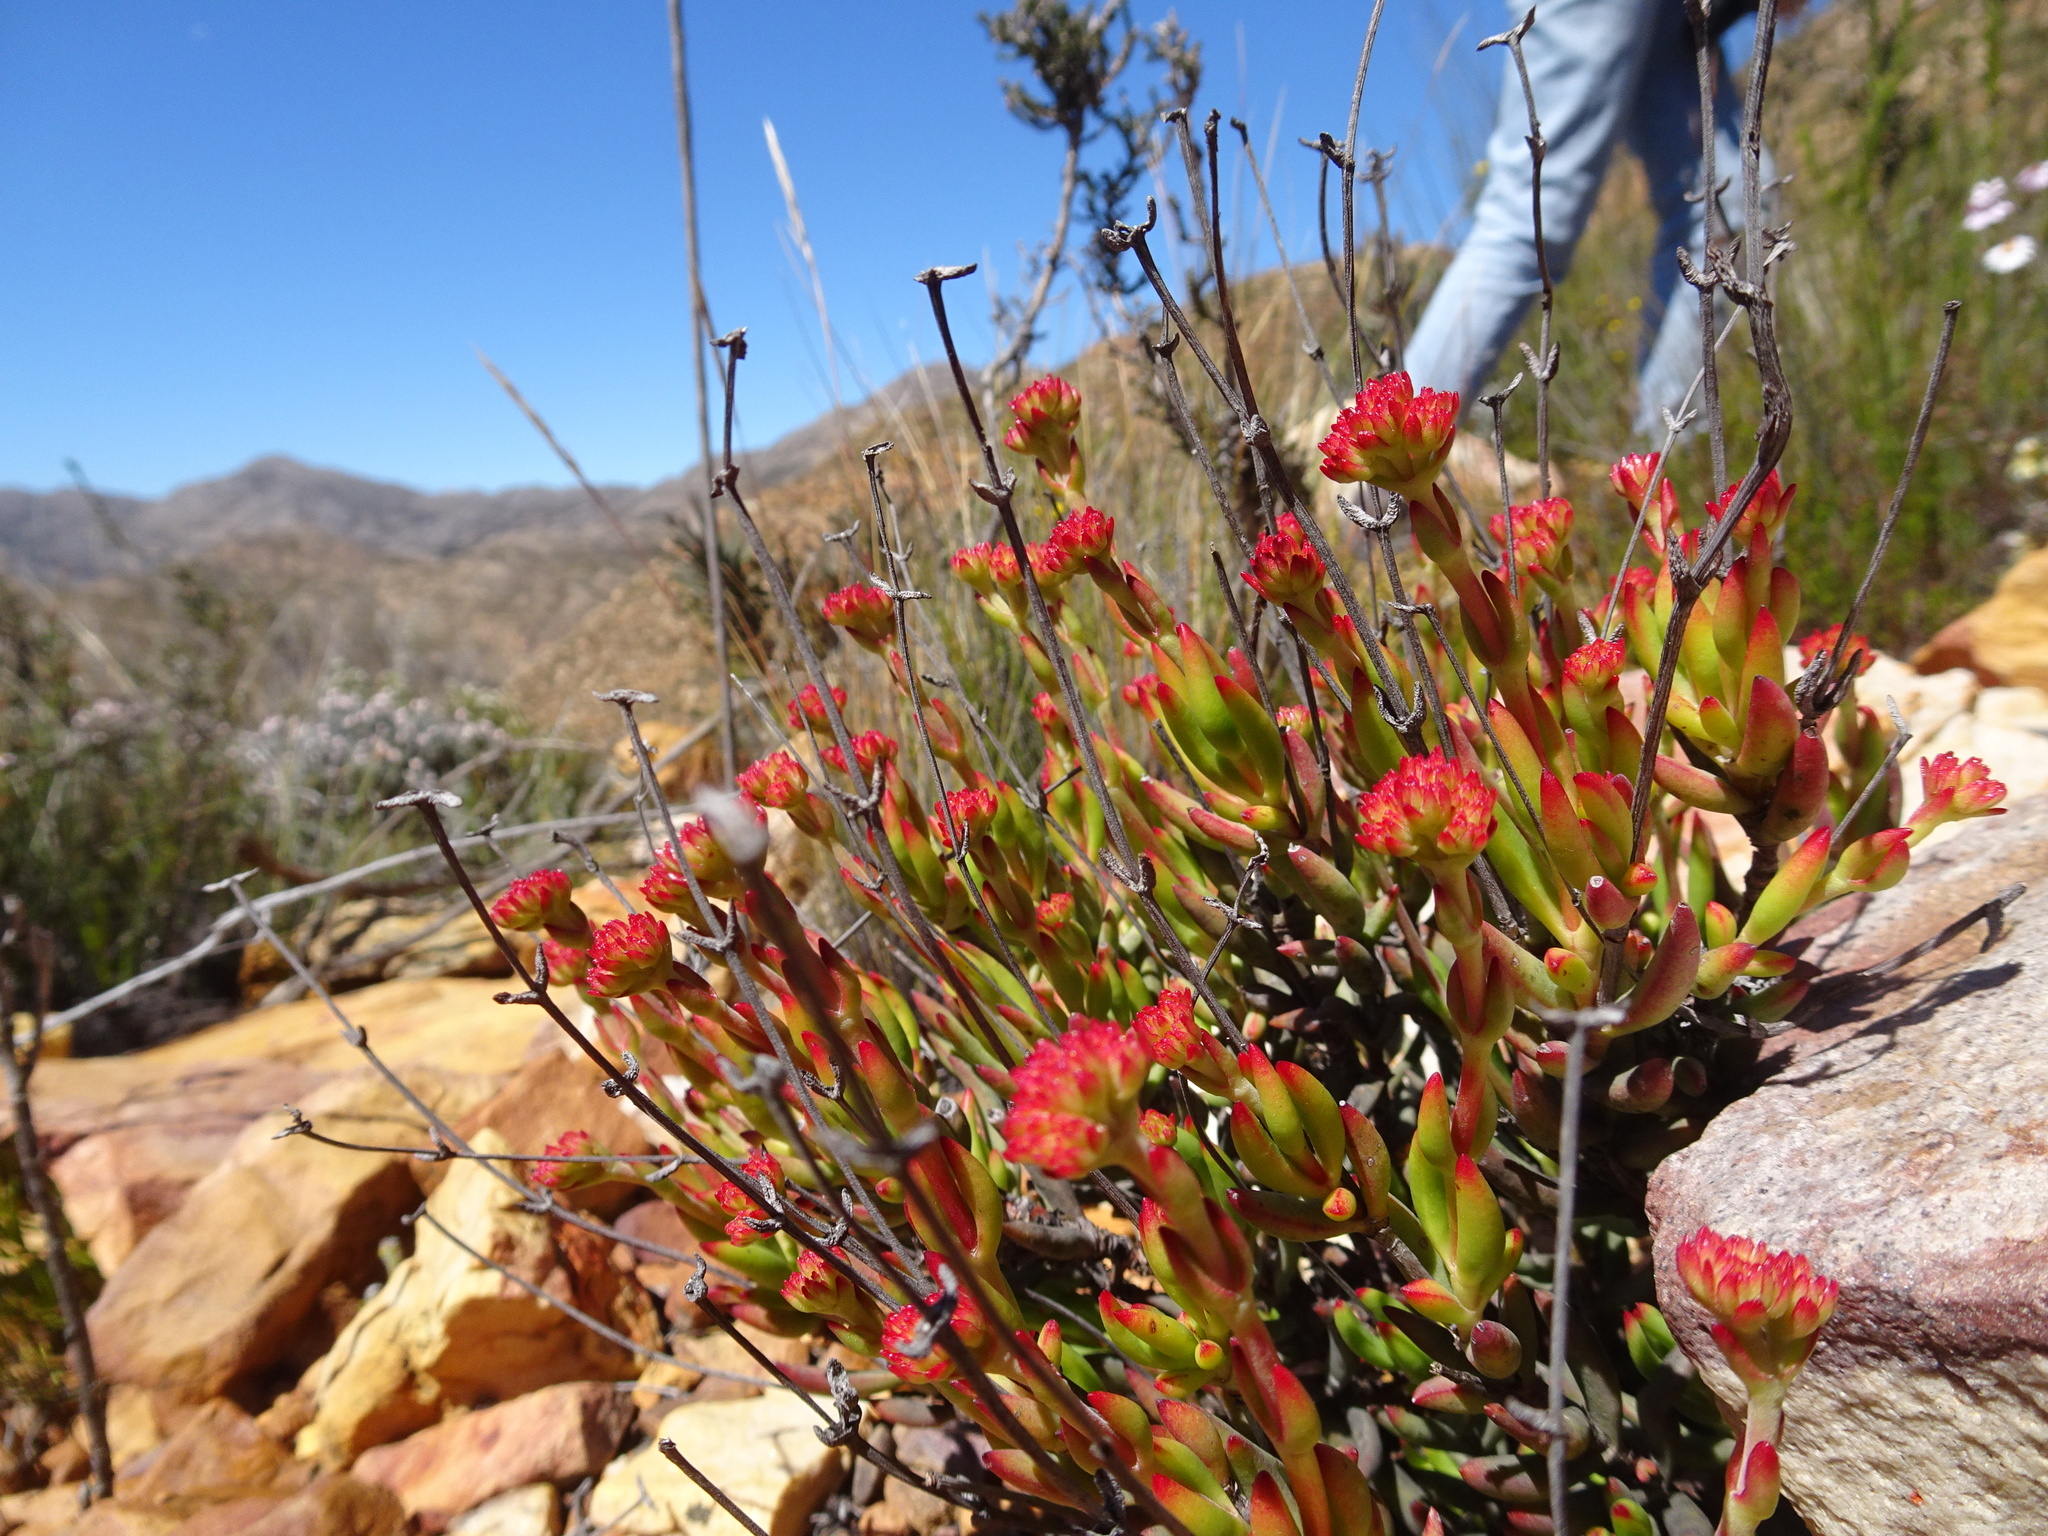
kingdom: Plantae
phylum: Tracheophyta
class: Magnoliopsida
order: Saxifragales
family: Crassulaceae
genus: Crassula
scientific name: Crassula atropurpurea
